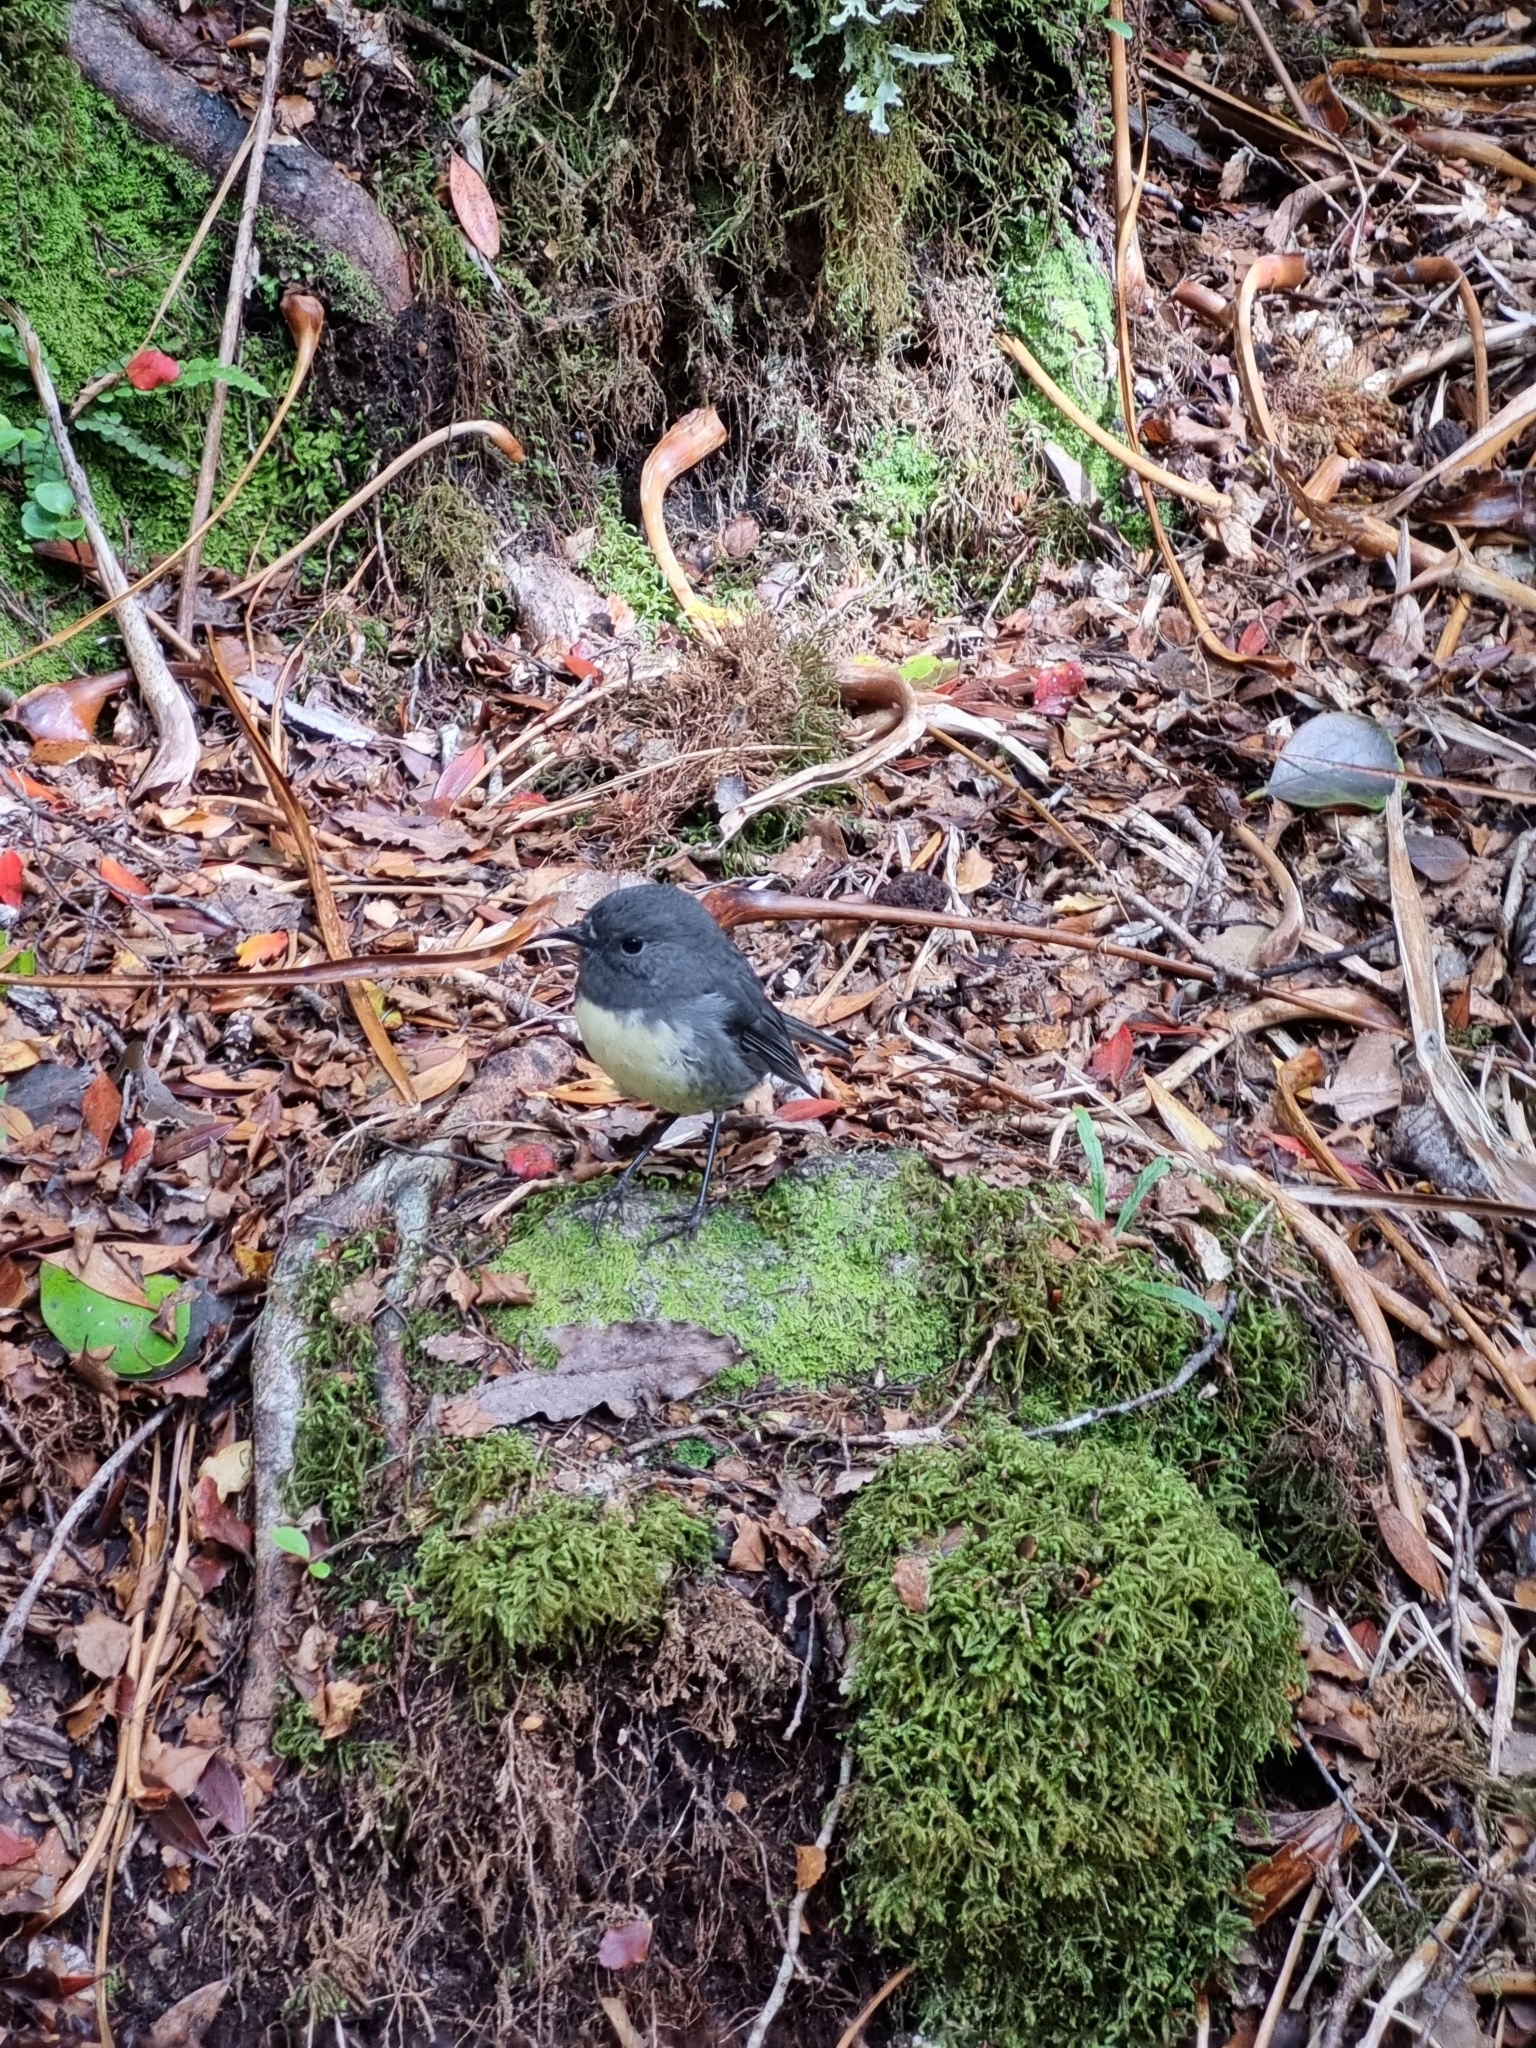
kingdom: Animalia
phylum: Chordata
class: Aves
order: Passeriformes
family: Petroicidae
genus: Petroica
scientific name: Petroica australis
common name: New zealand robin
